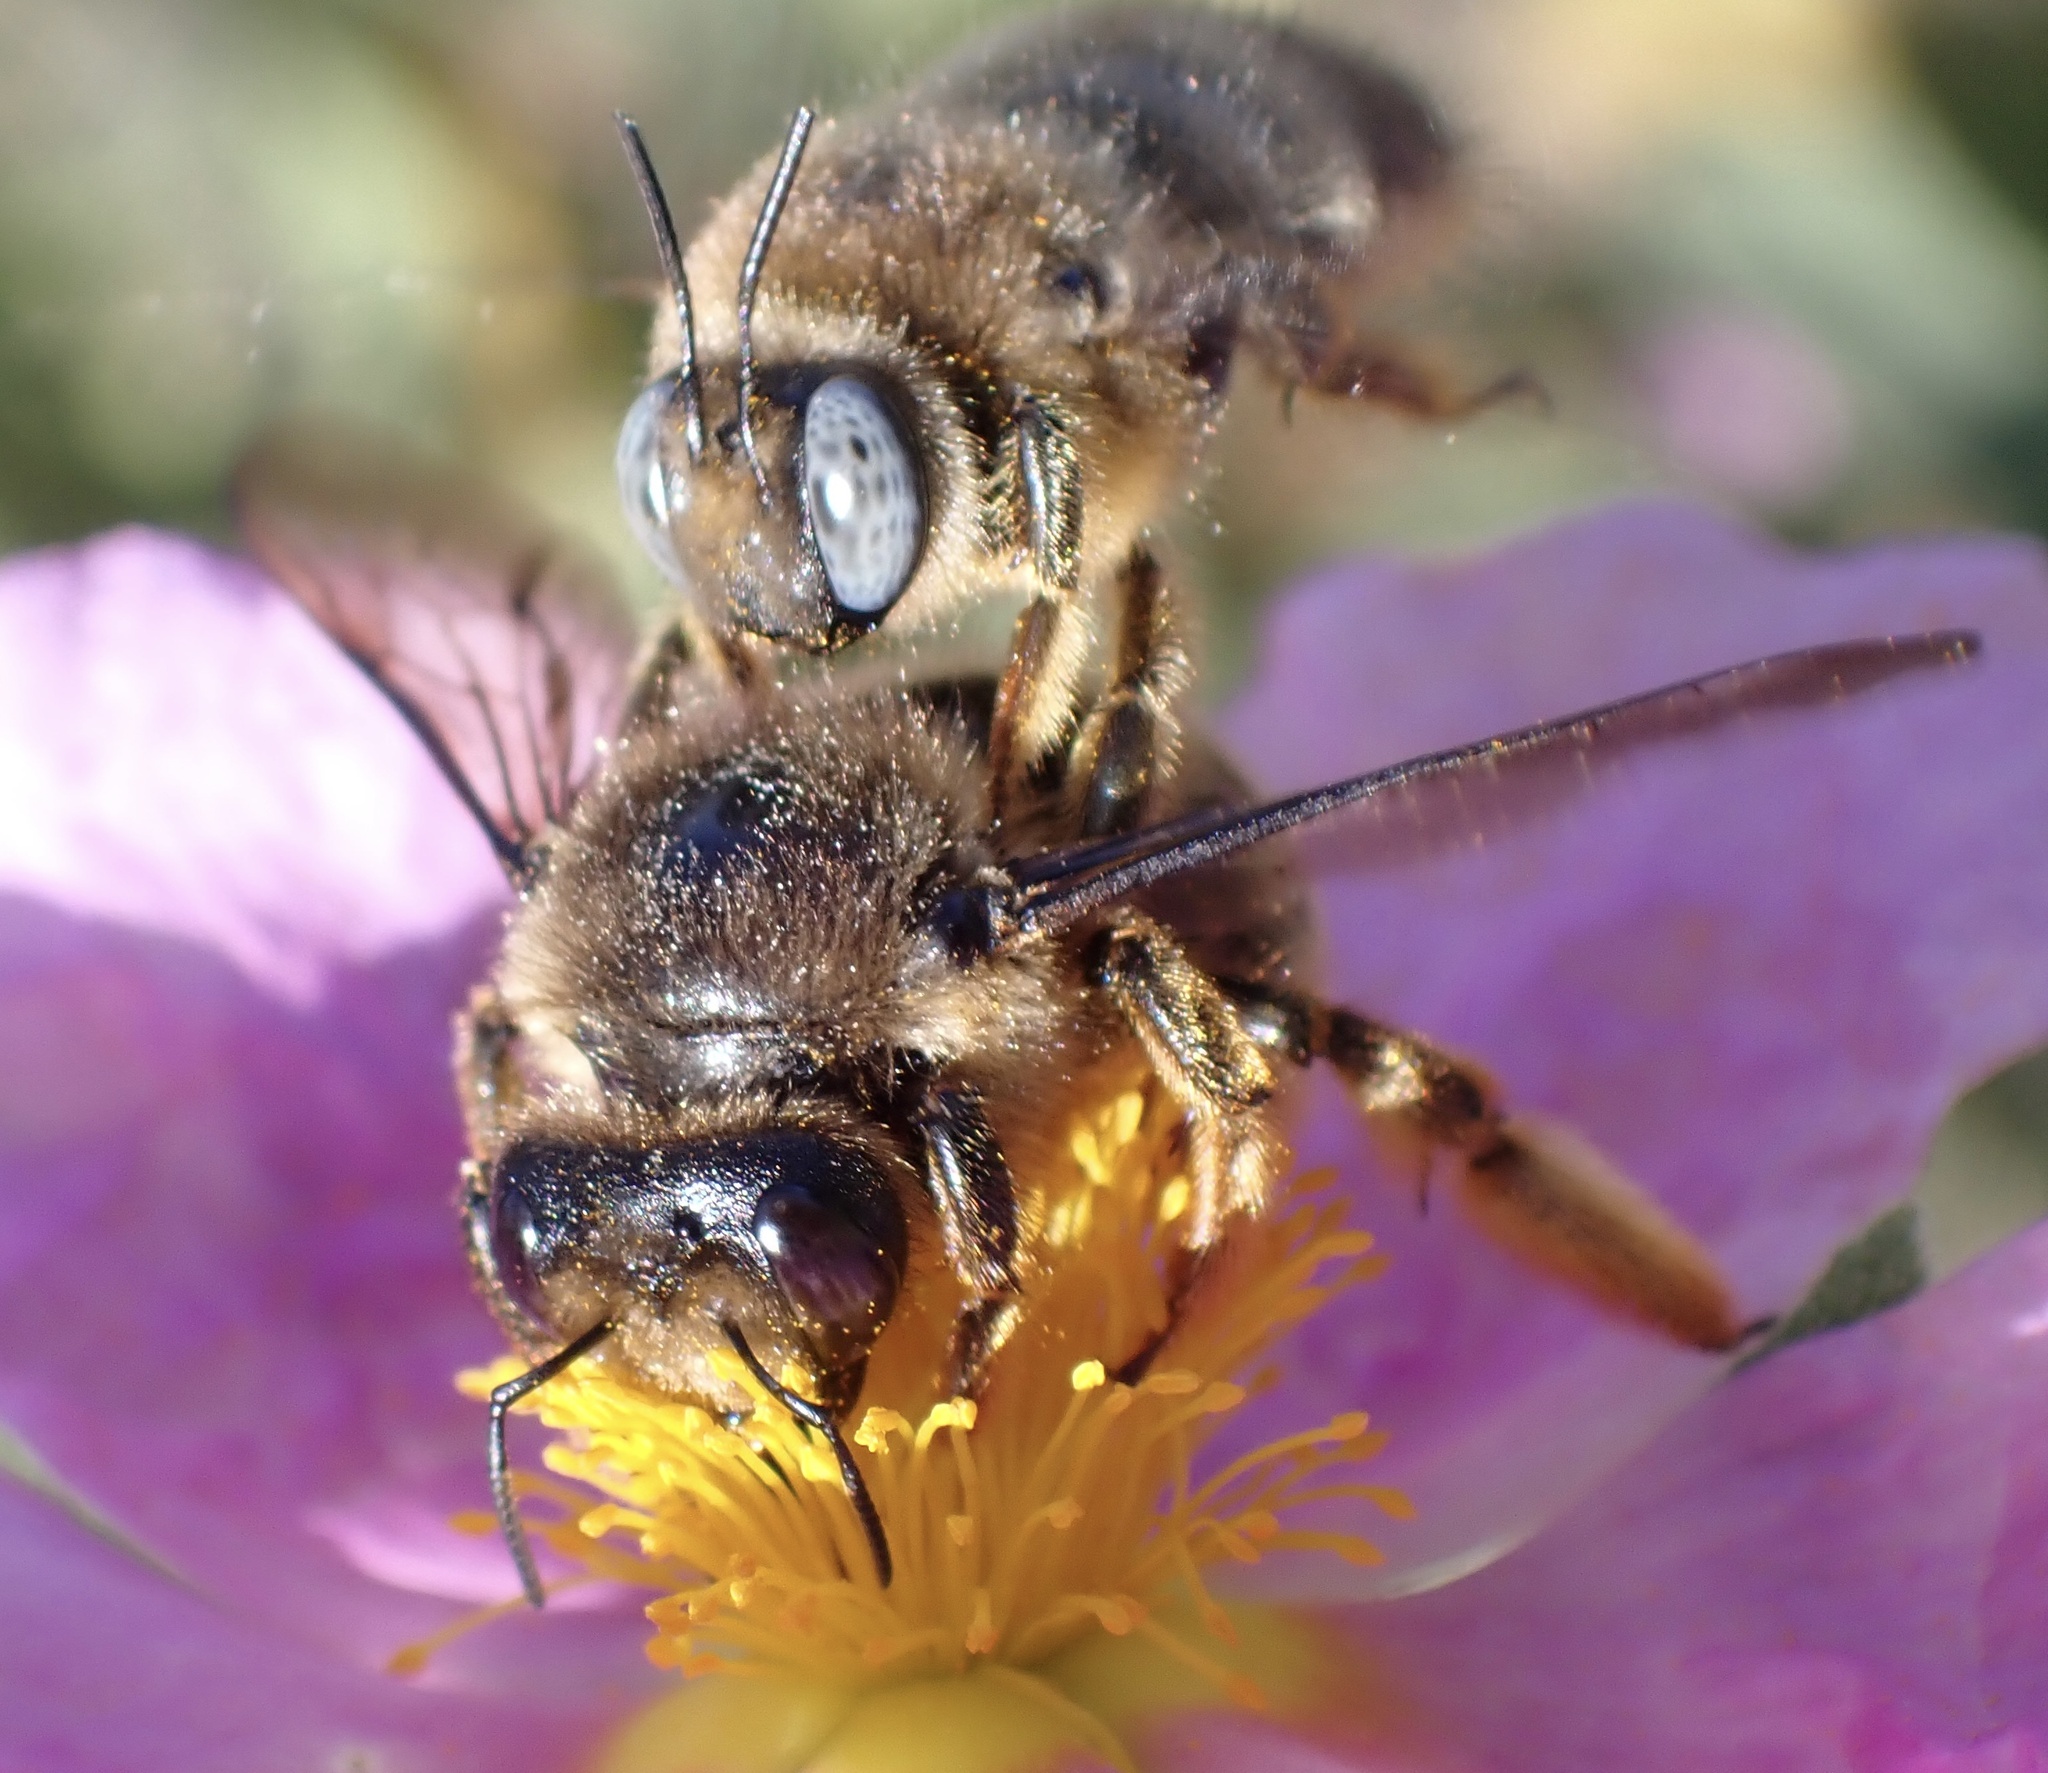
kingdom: Animalia
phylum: Arthropoda
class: Insecta
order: Hymenoptera
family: Apidae
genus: Xylocopa
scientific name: Xylocopa cantabrita
